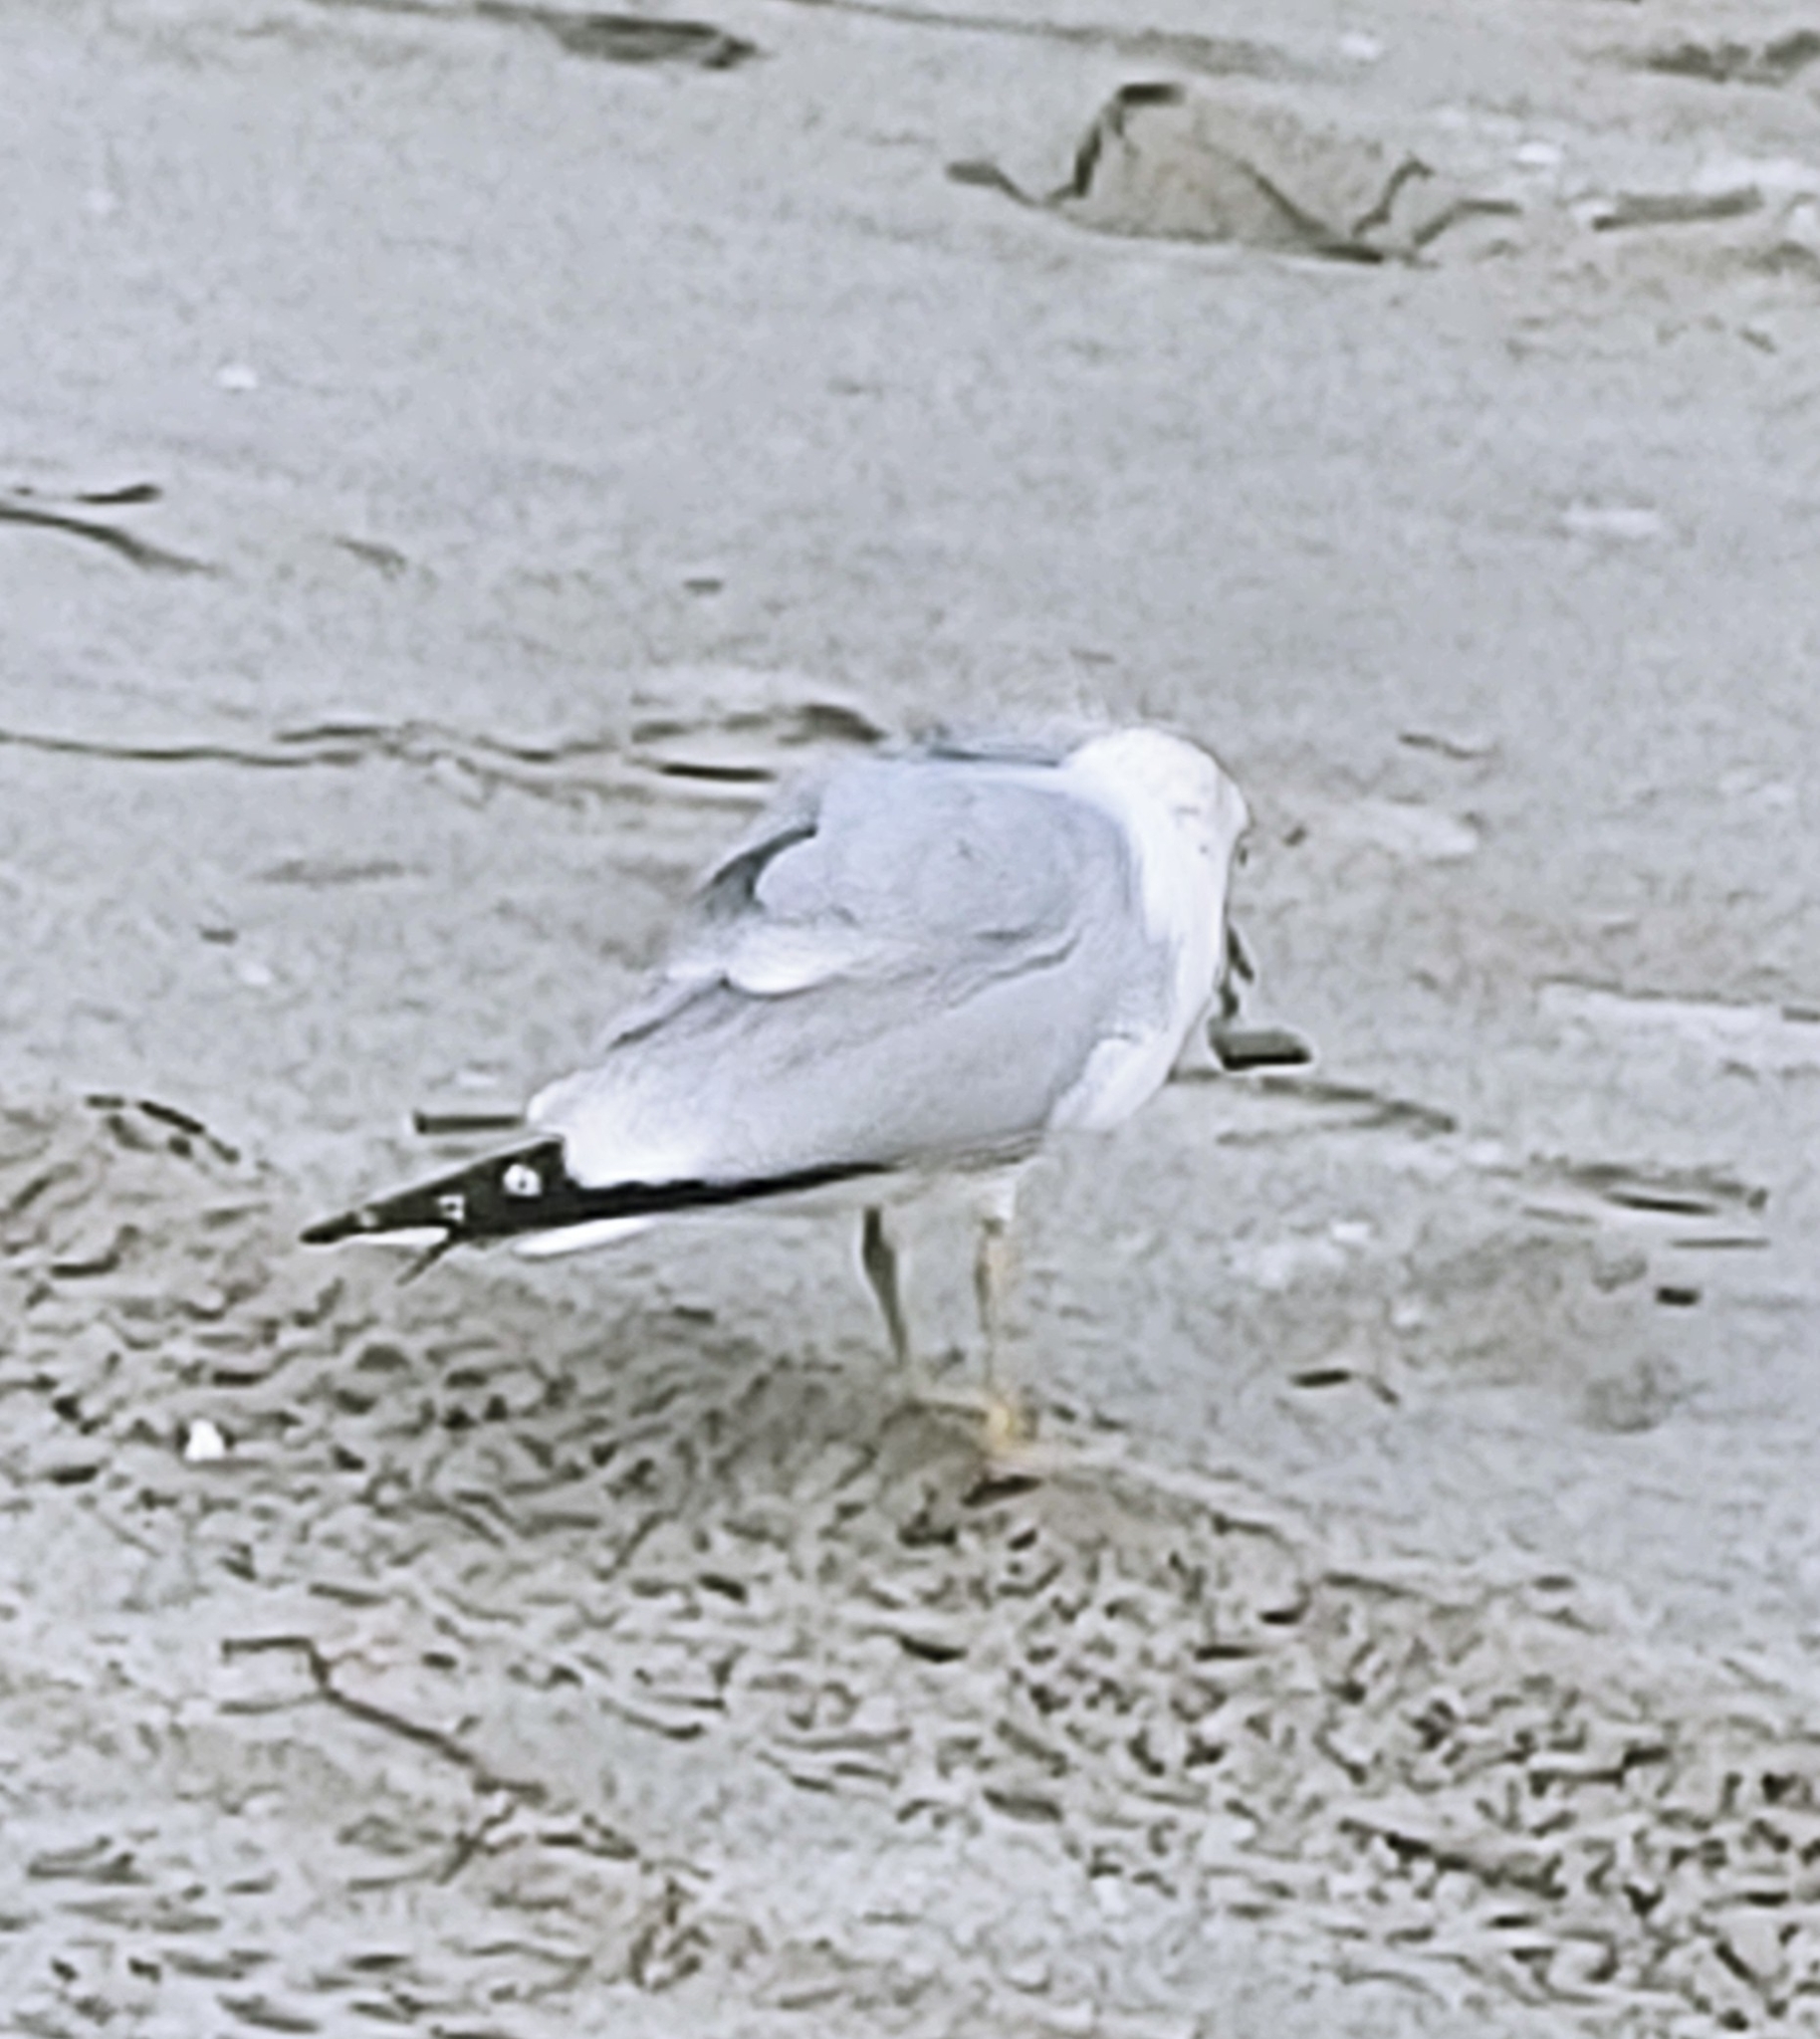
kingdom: Animalia
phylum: Chordata
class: Aves
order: Charadriiformes
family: Laridae
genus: Larus
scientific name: Larus delawarensis
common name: Ring-billed gull
